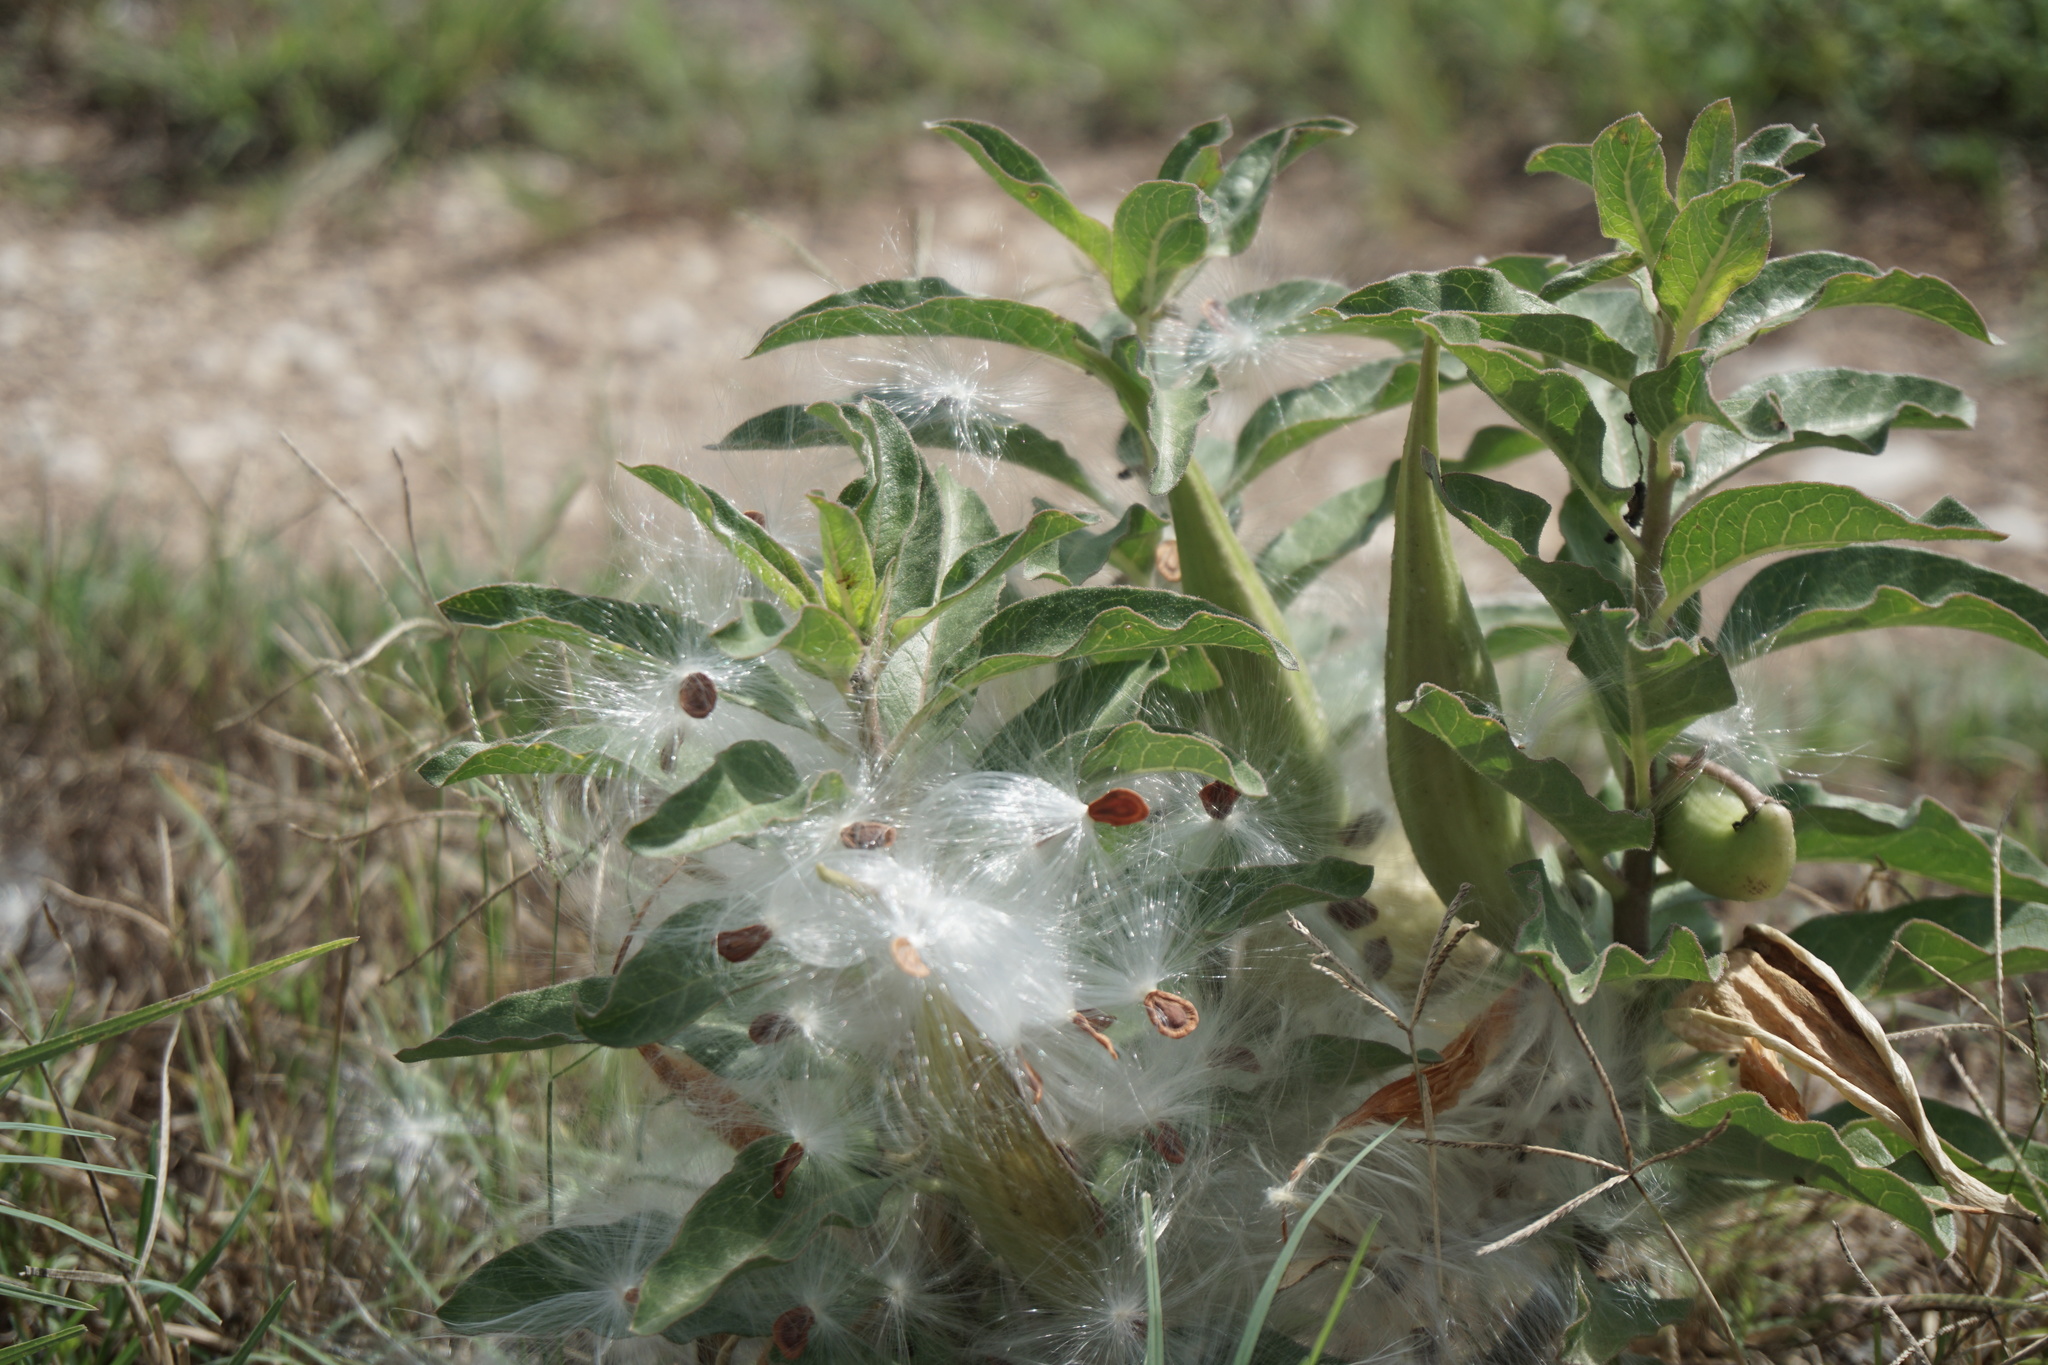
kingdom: Plantae
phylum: Tracheophyta
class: Magnoliopsida
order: Gentianales
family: Apocynaceae
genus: Asclepias
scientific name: Asclepias oenotheroides
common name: Zizotes milkweed
